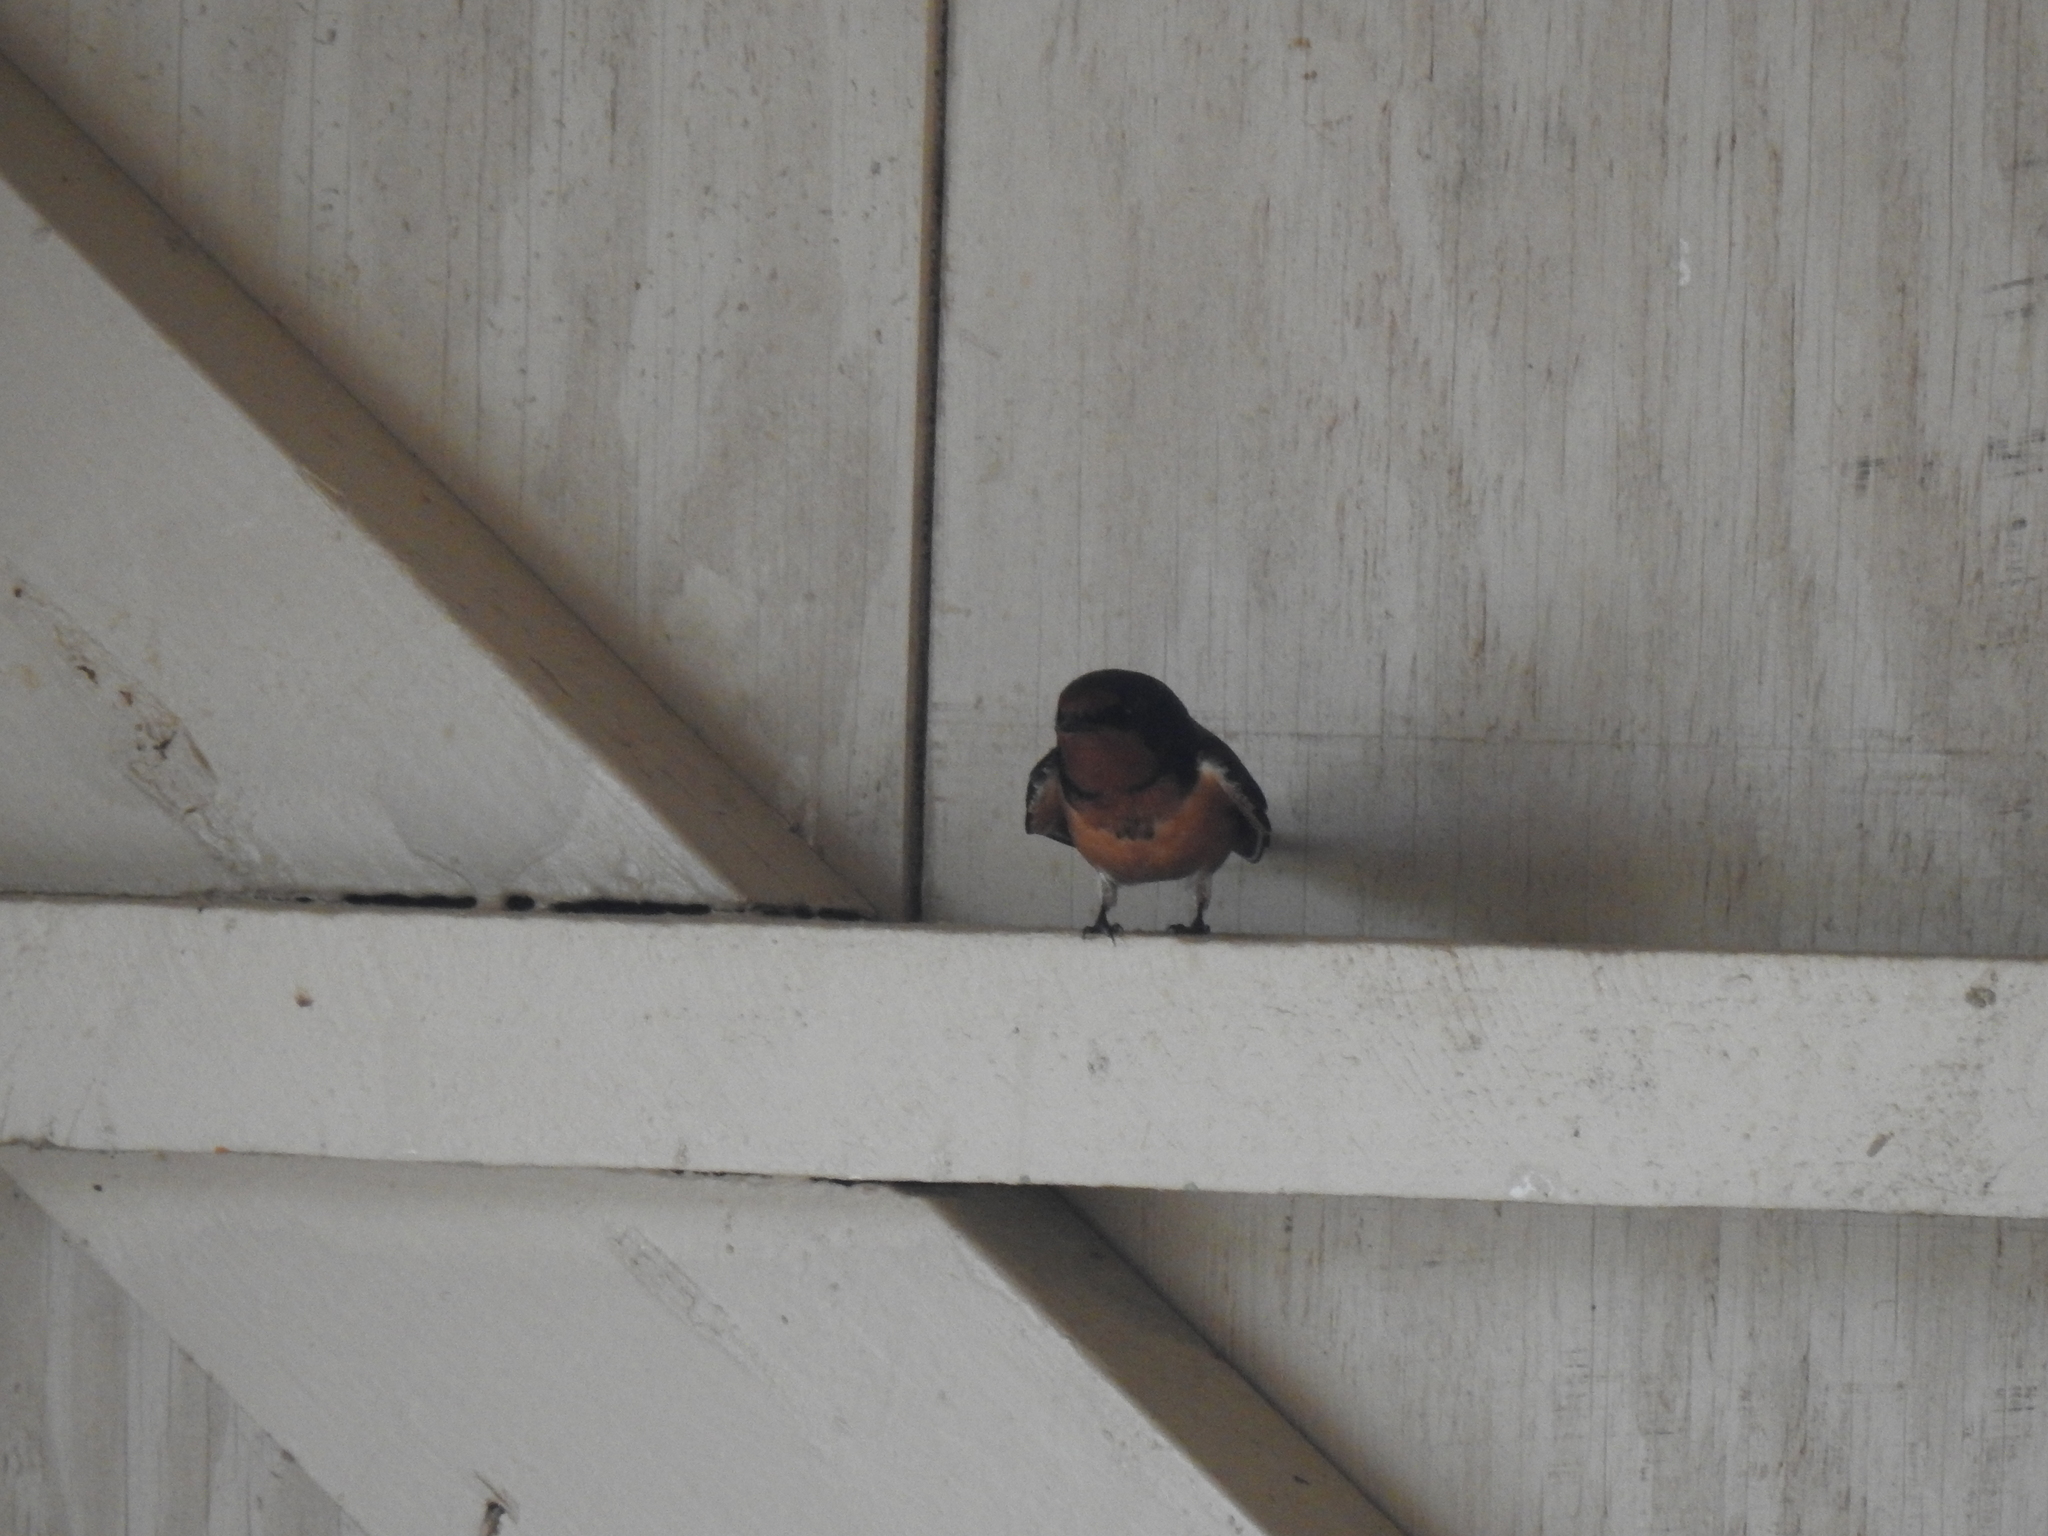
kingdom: Animalia
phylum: Chordata
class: Aves
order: Passeriformes
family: Hirundinidae
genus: Hirundo
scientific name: Hirundo rustica
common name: Barn swallow
